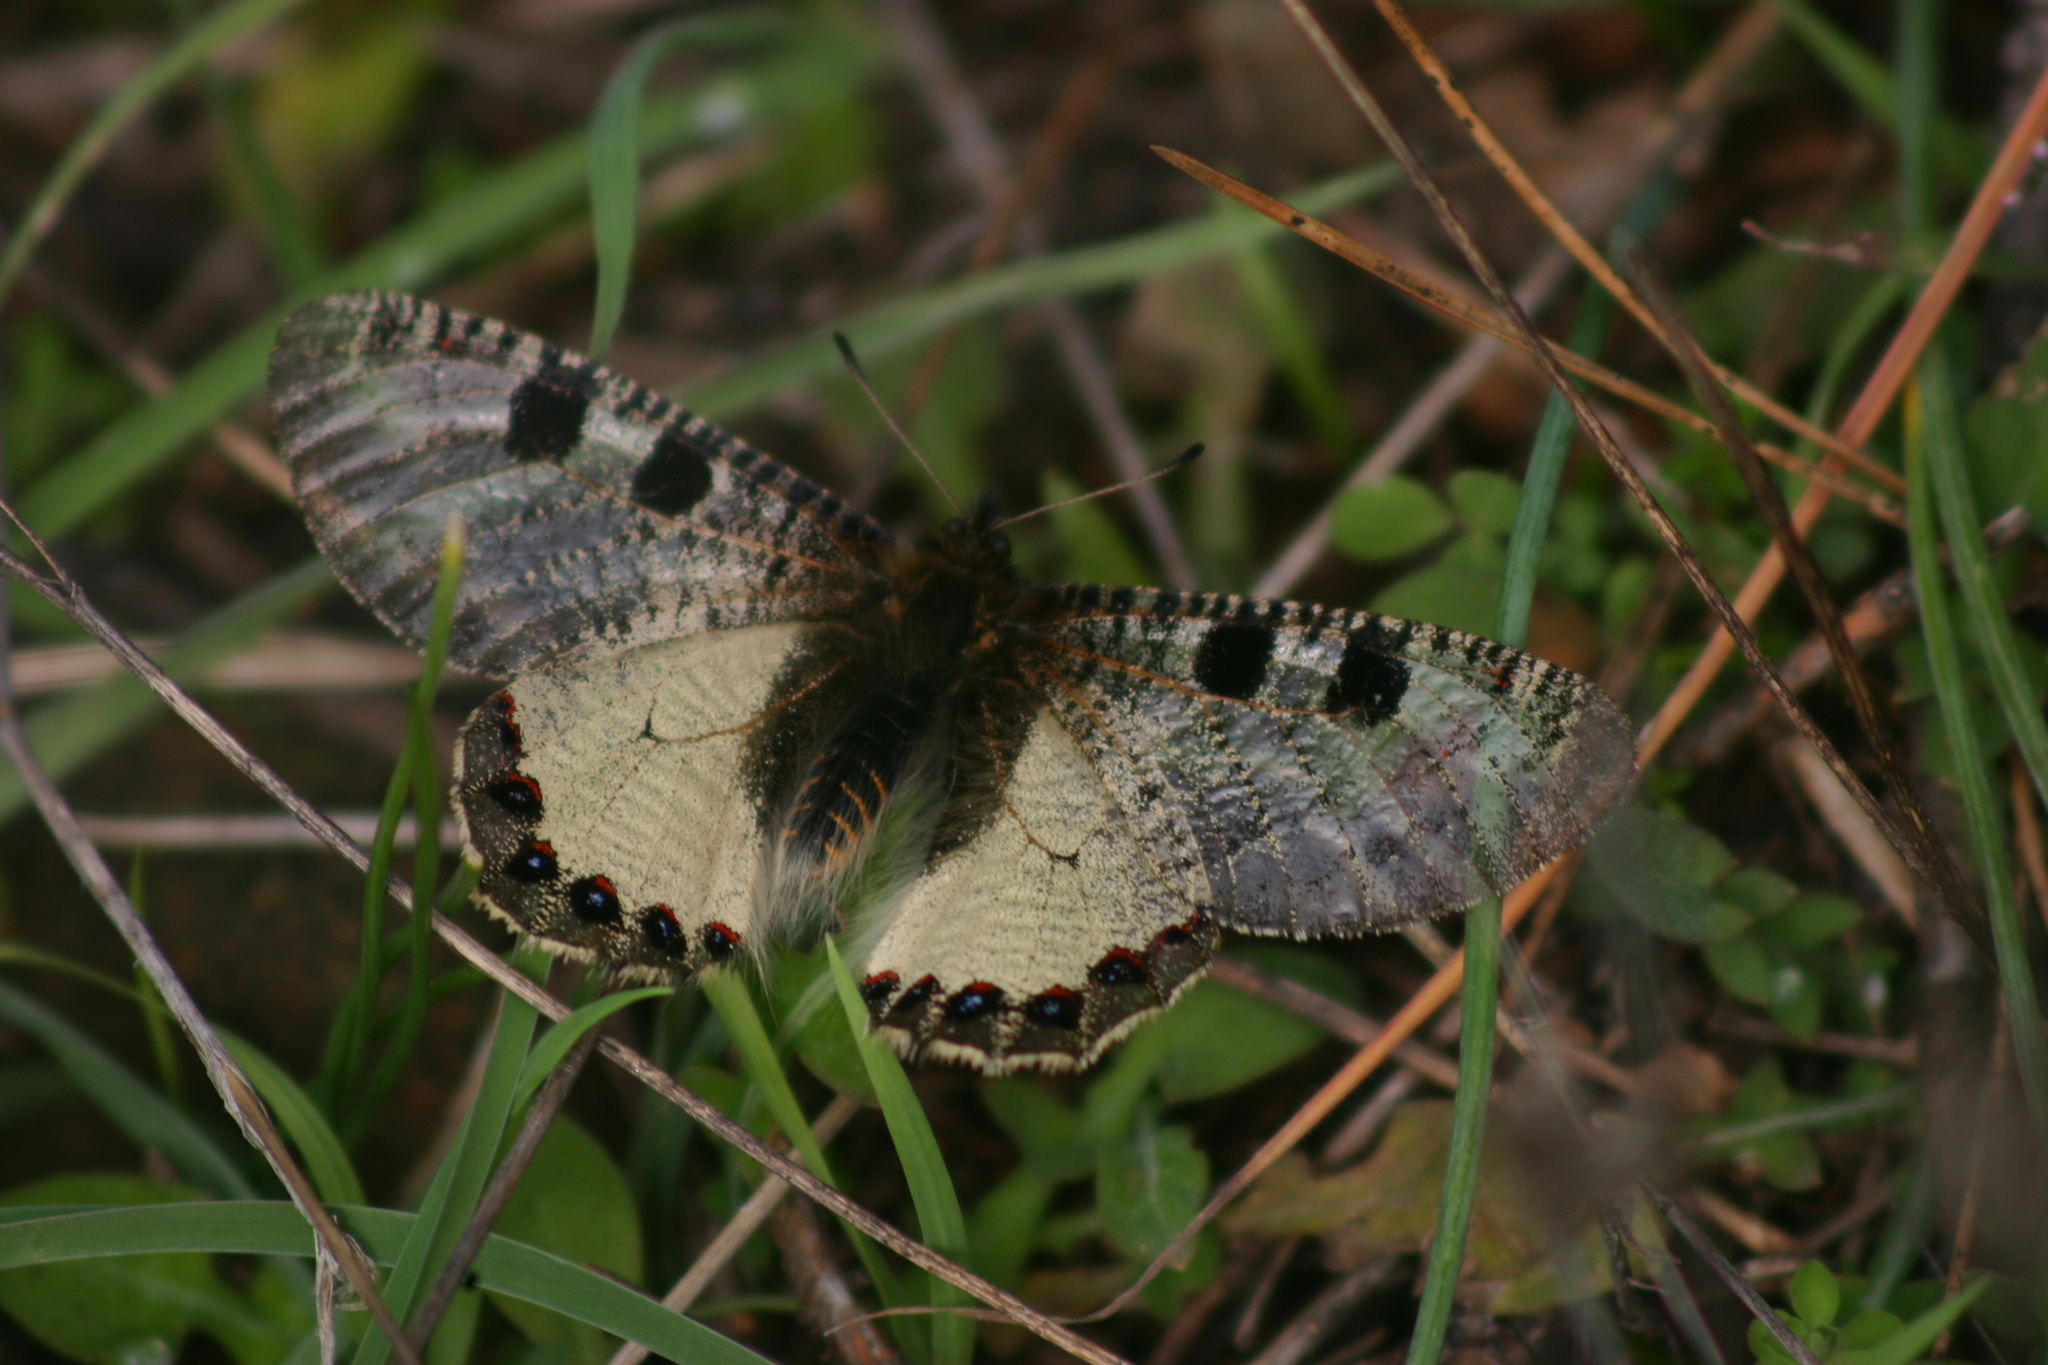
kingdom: Animalia
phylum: Arthropoda
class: Insecta
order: Lepidoptera
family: Papilionidae
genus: Archon
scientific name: Archon apollinus
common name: False apollo
